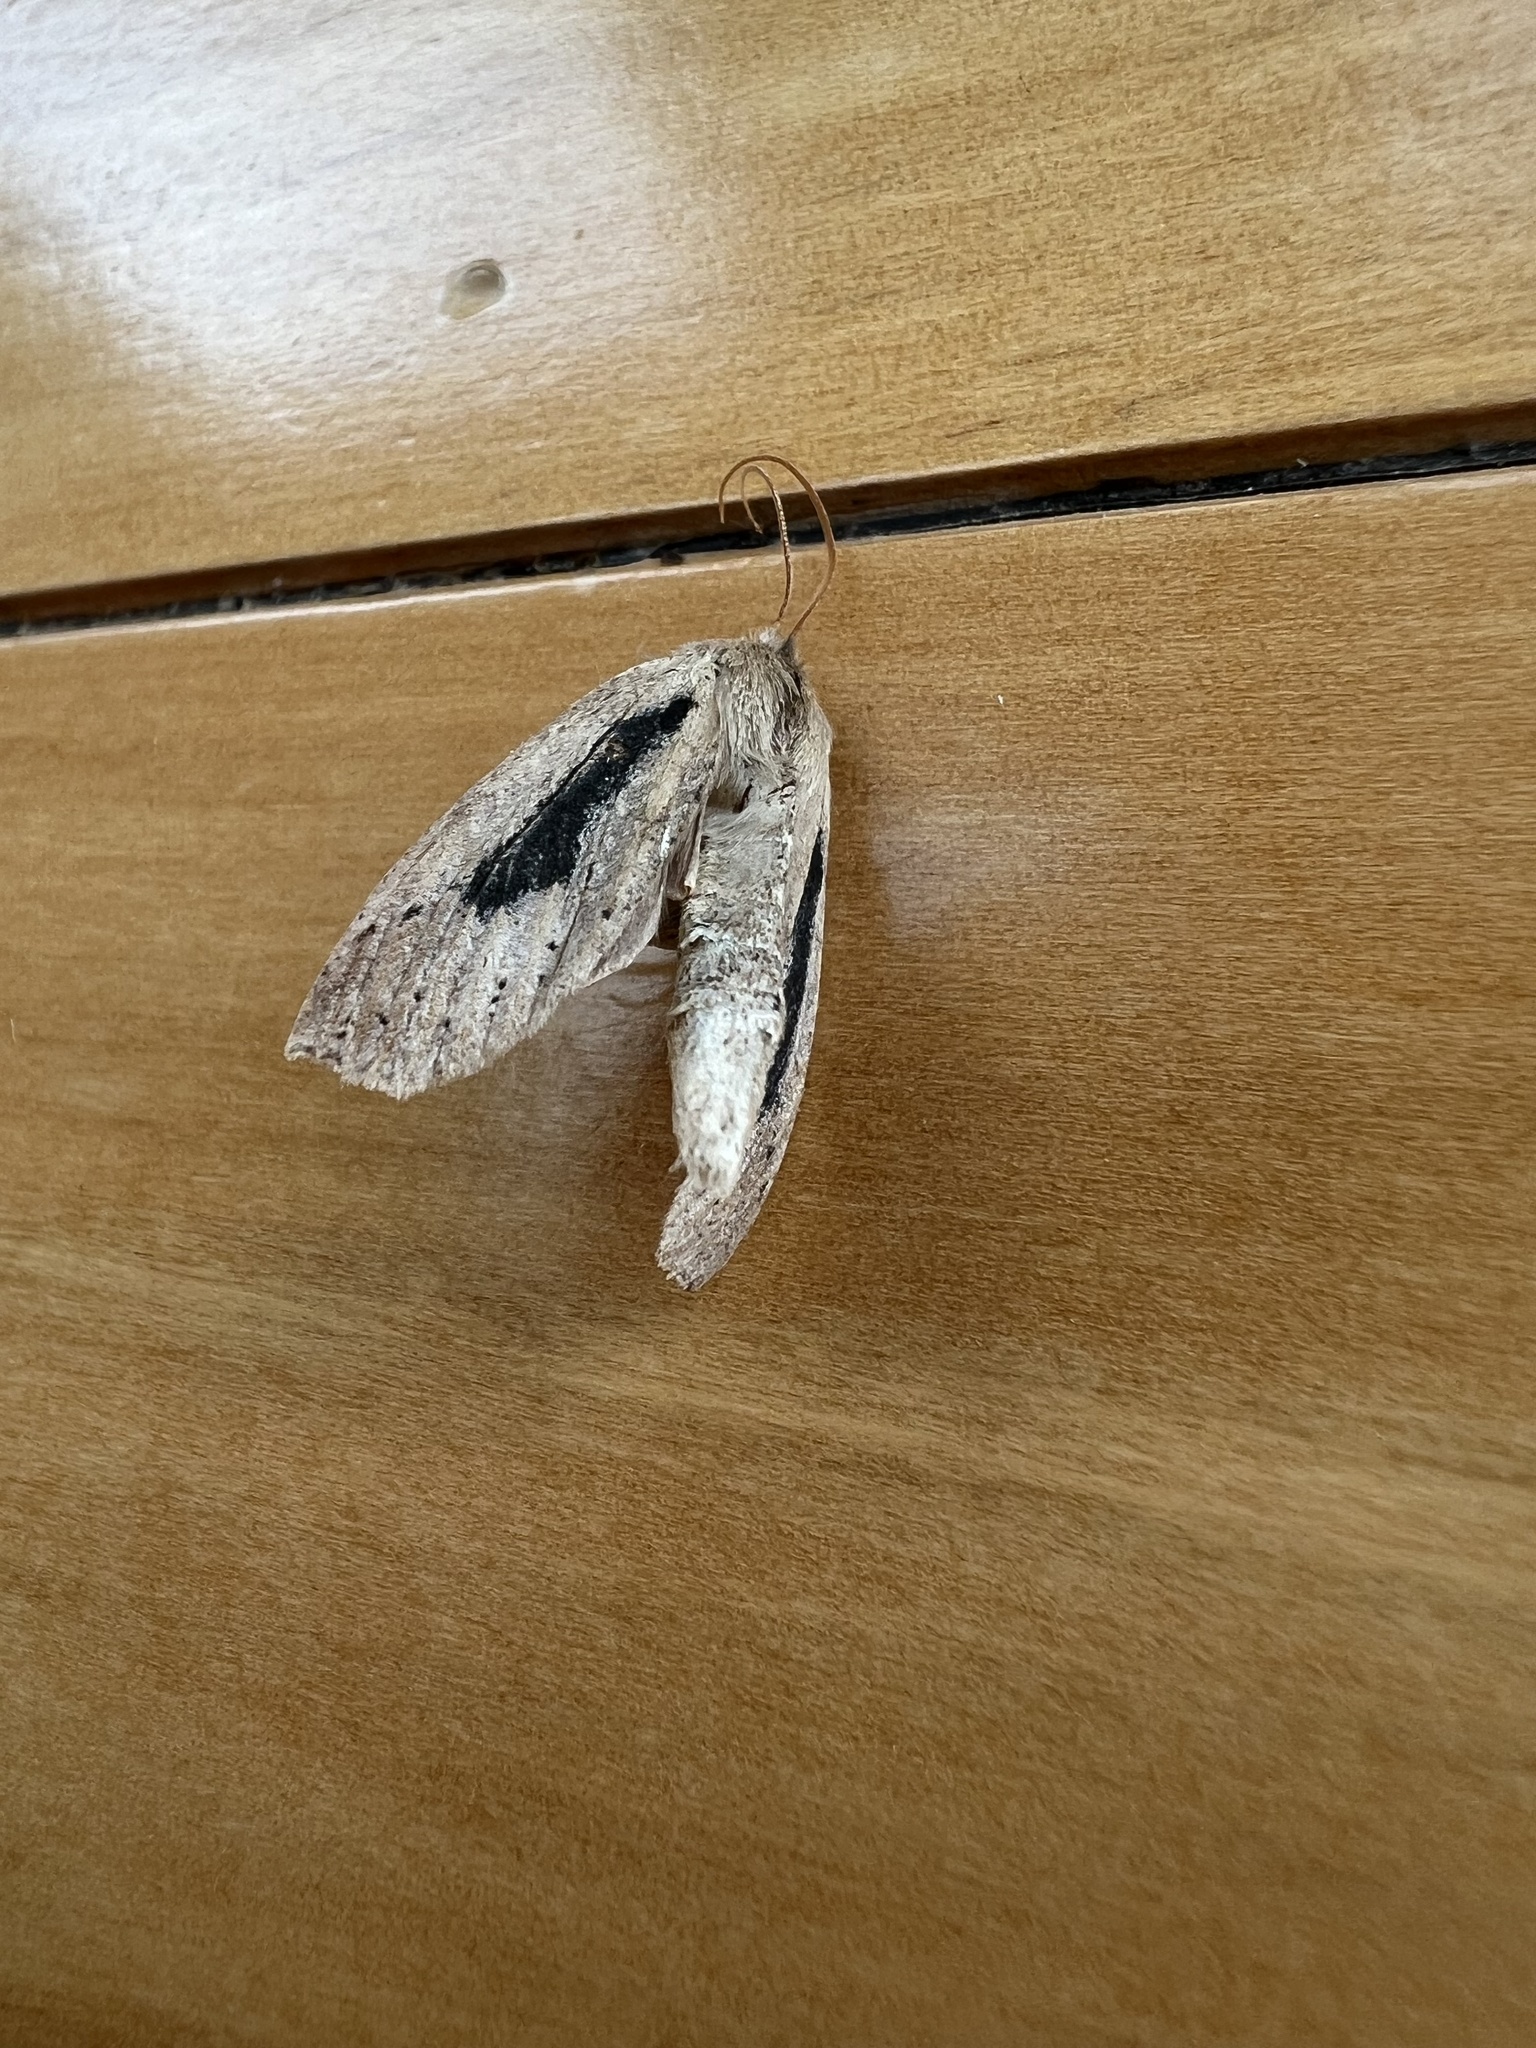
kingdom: Animalia
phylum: Arthropoda
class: Insecta
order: Lepidoptera
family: Geometridae
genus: Declana
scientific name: Declana leptomera
